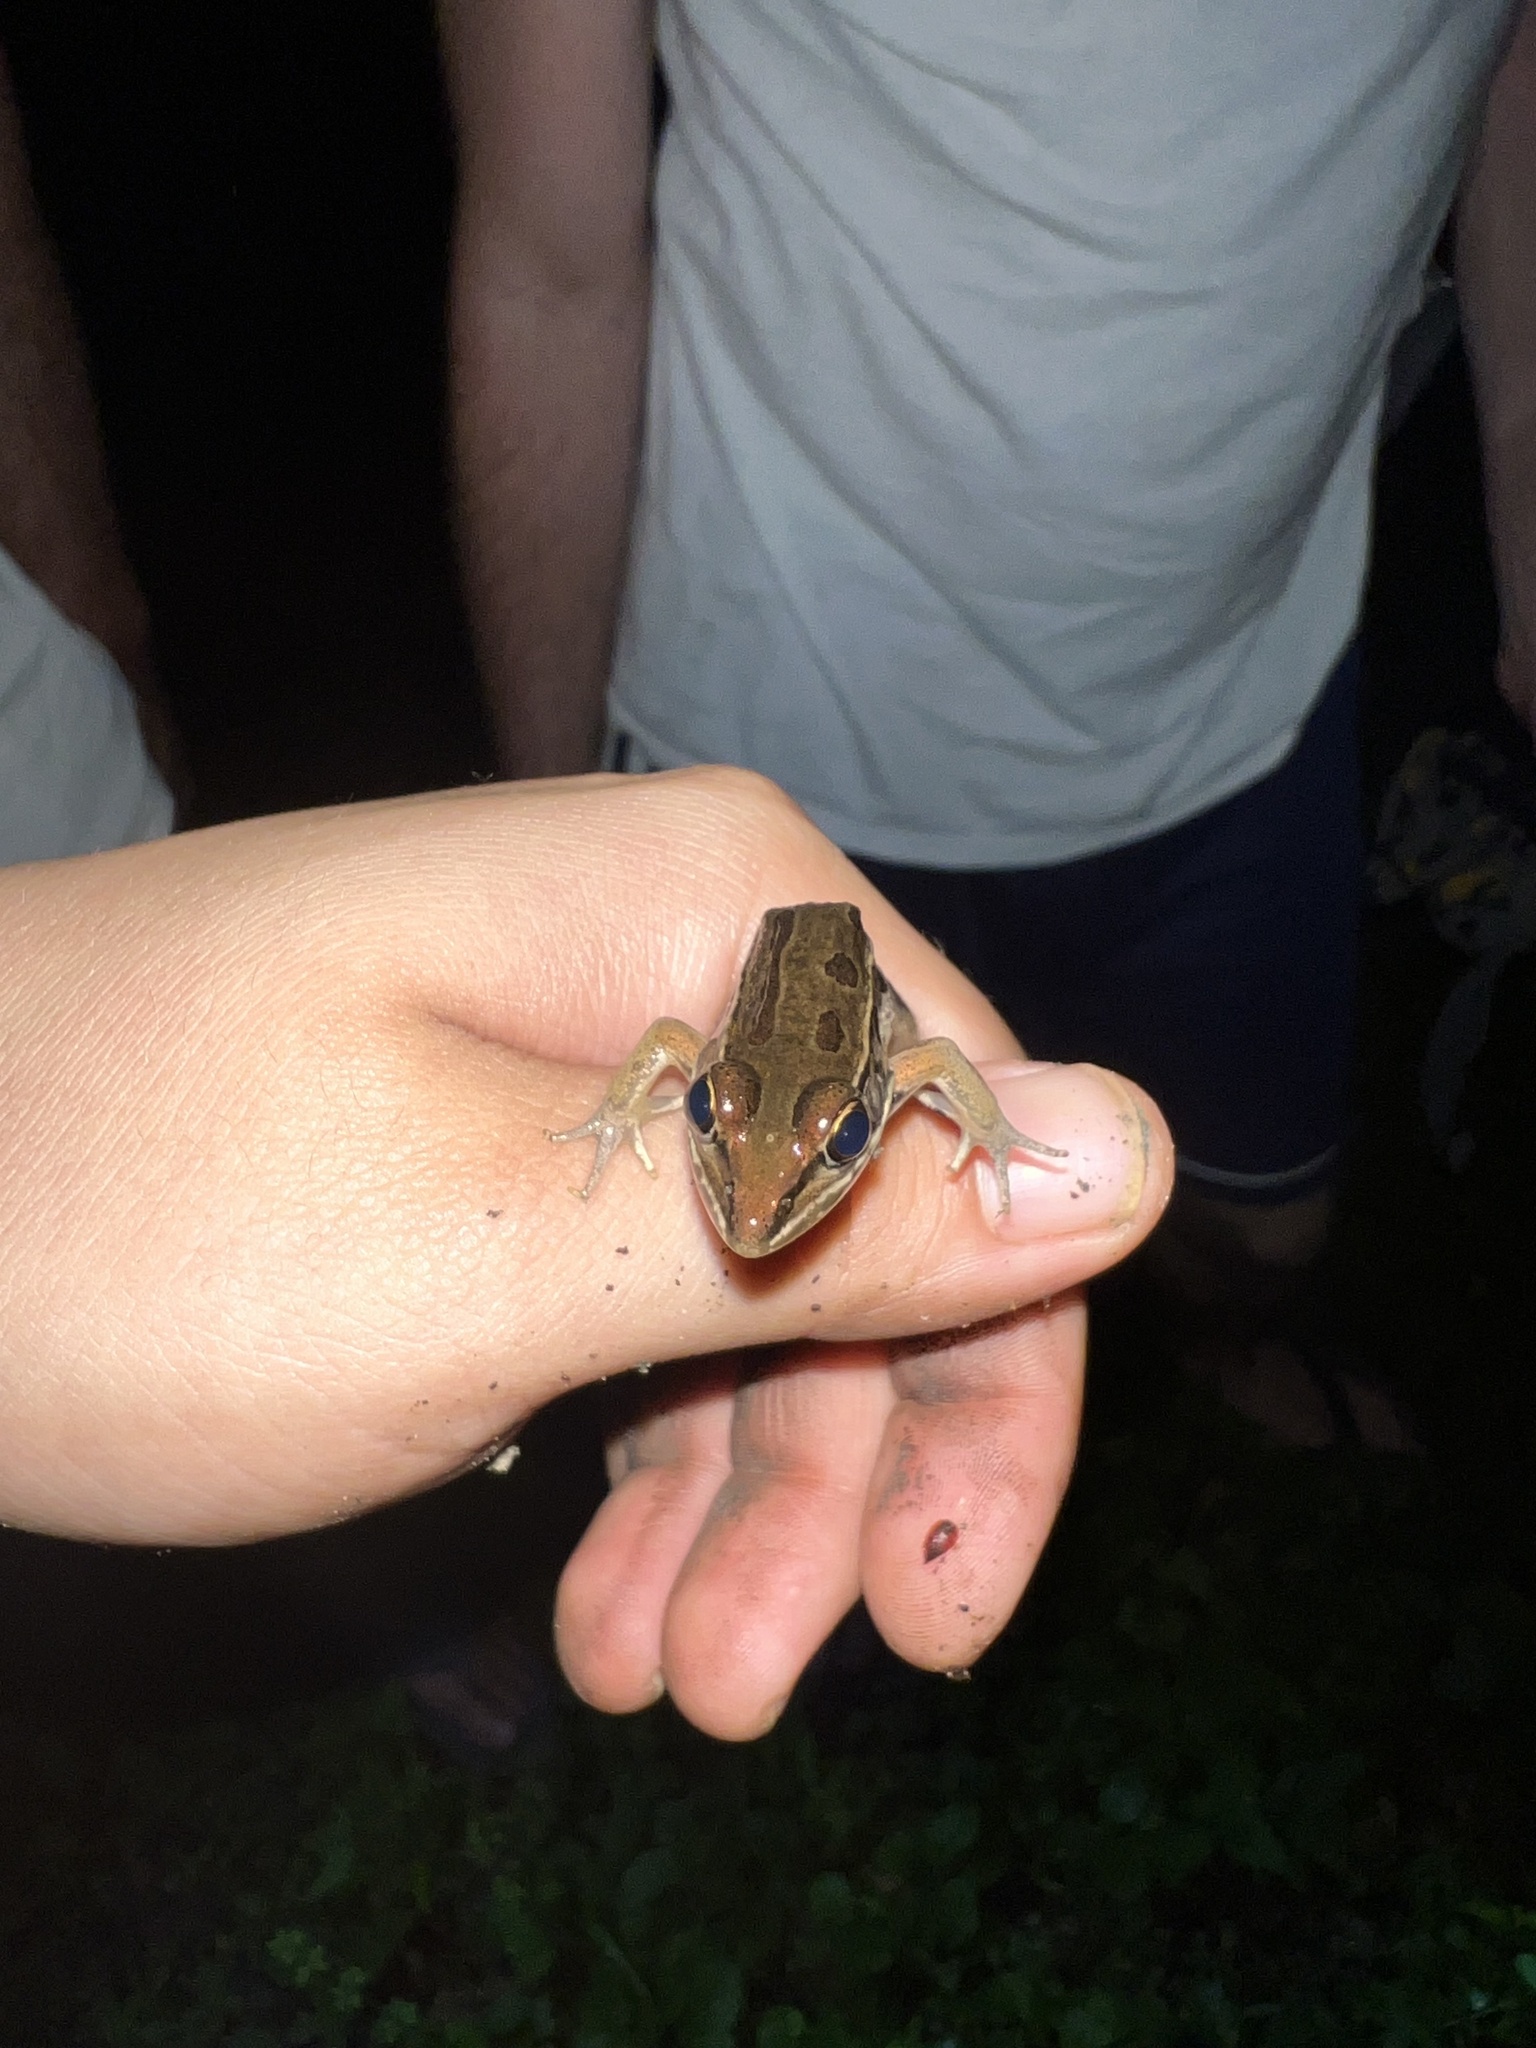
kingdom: Animalia
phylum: Chordata
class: Amphibia
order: Anura
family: Ranidae
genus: Lithobates
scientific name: Lithobates sphenocephalus
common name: Southern leopard frog
